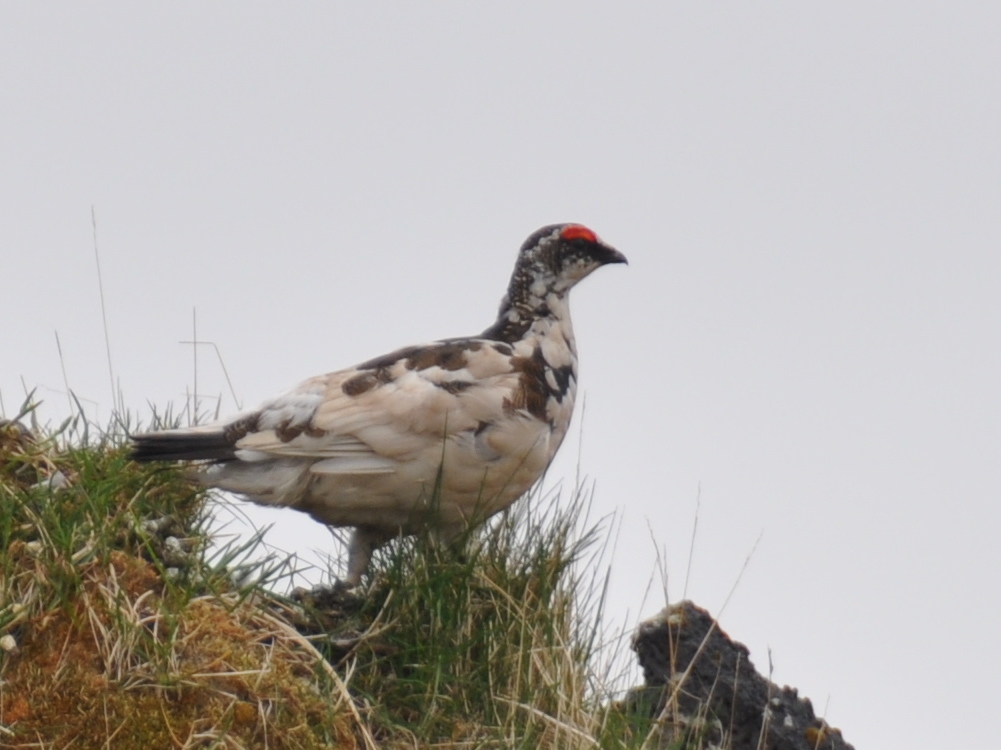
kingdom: Animalia
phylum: Chordata
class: Aves
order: Galliformes
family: Phasianidae
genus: Lagopus
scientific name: Lagopus muta
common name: Rock ptarmigan
